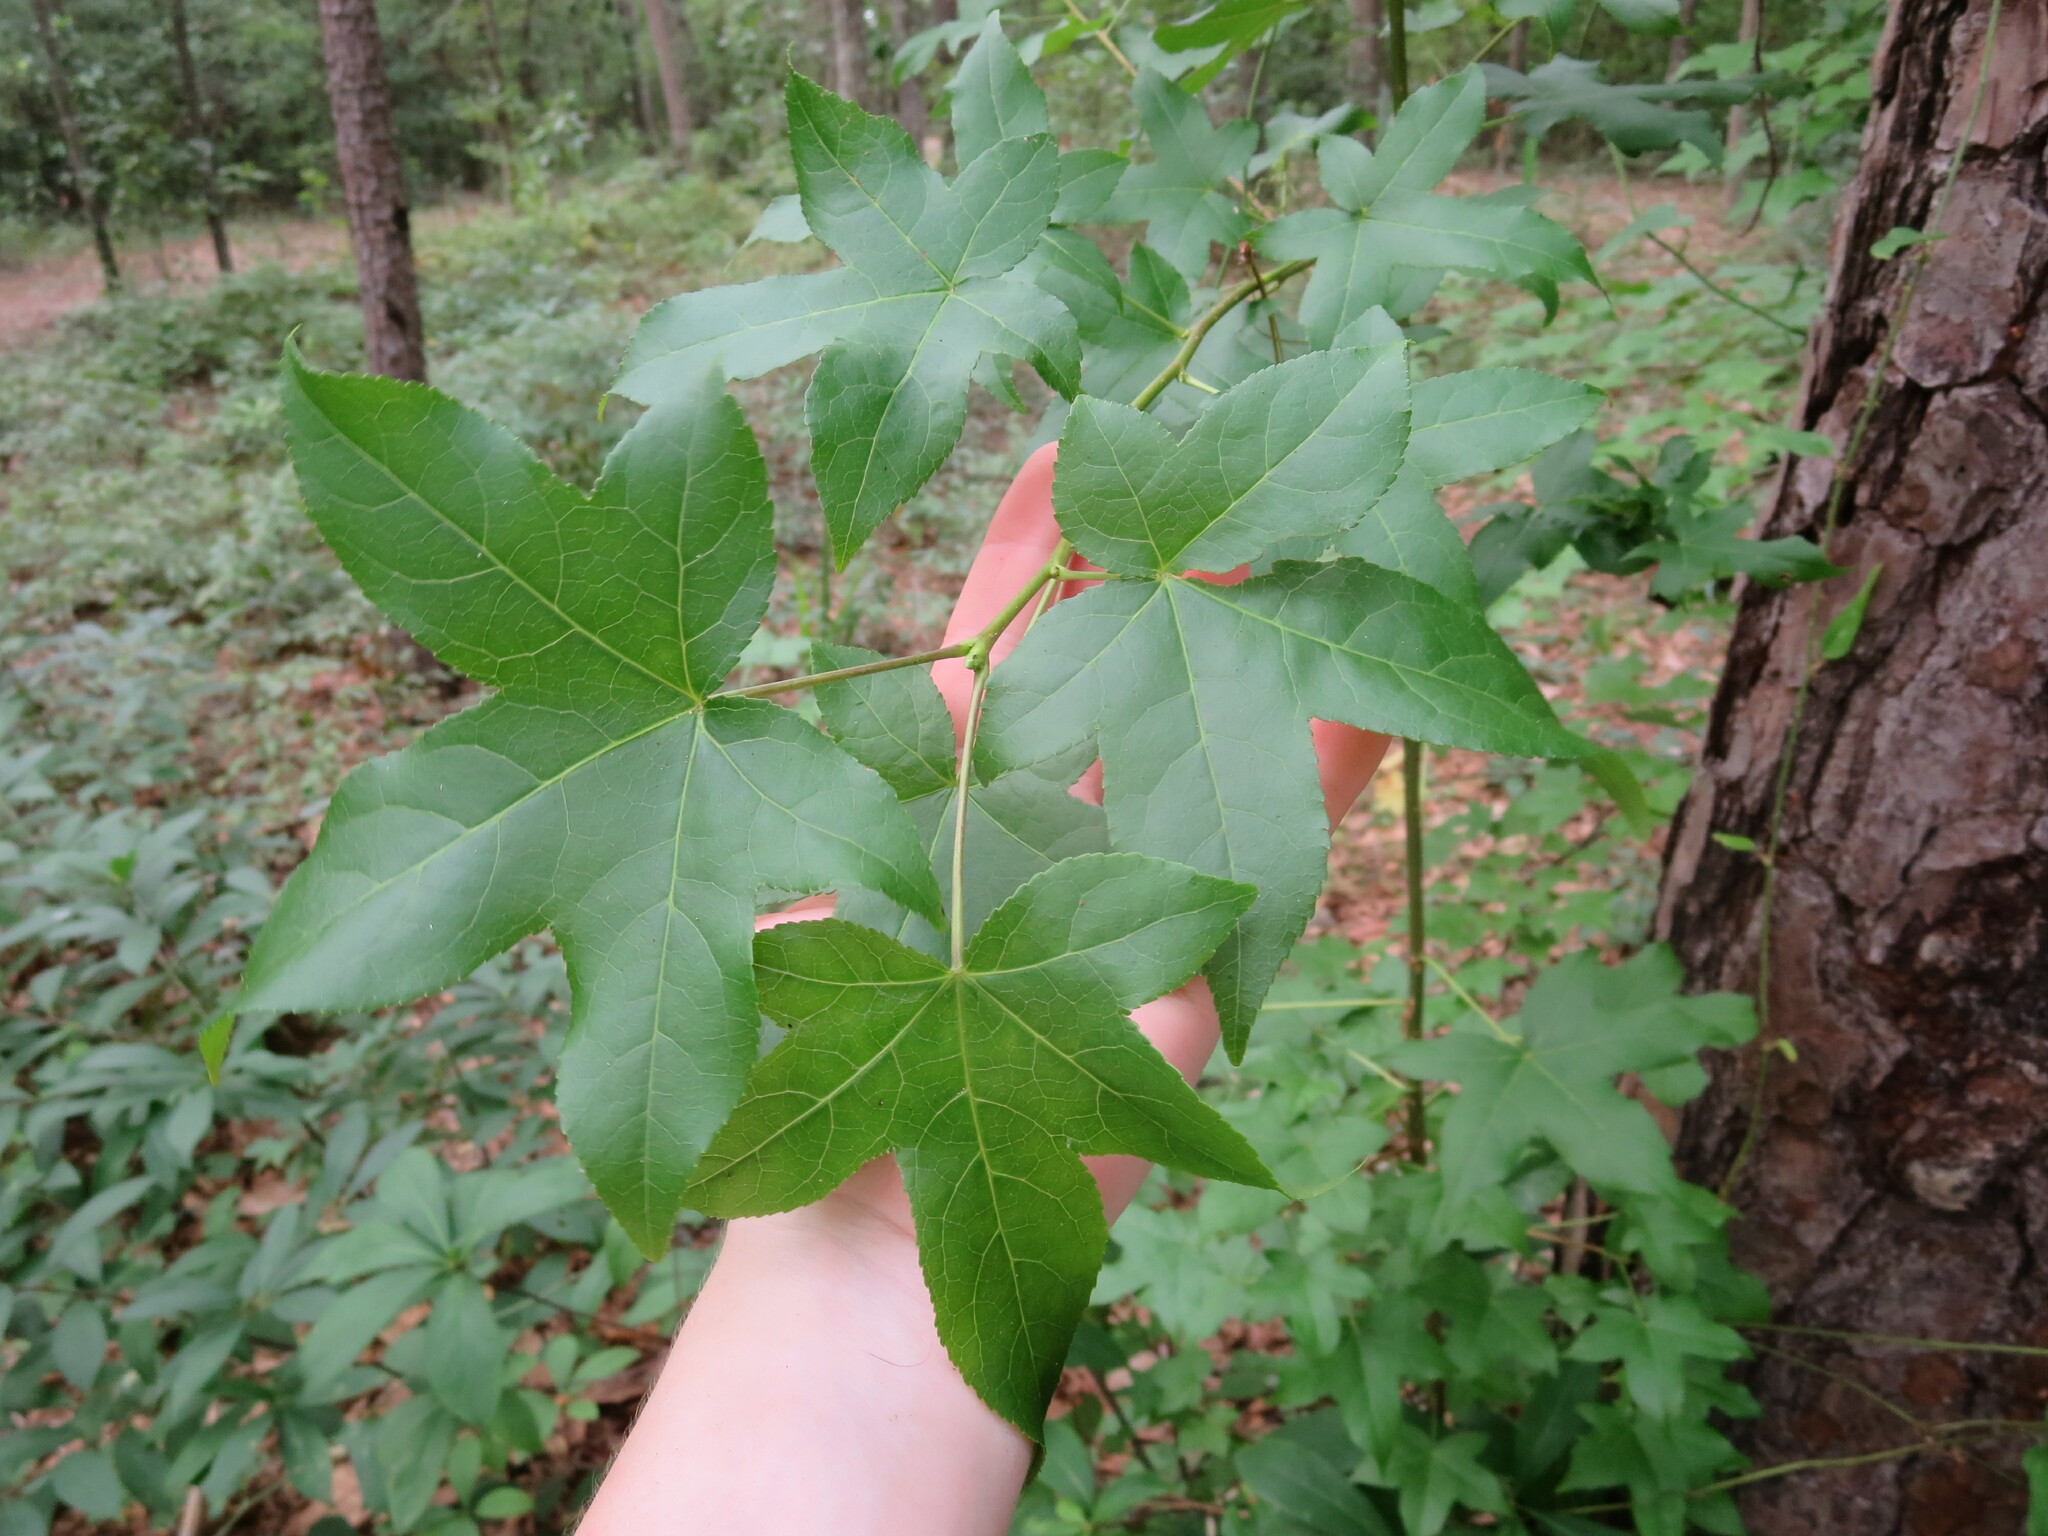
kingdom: Plantae
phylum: Tracheophyta
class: Magnoliopsida
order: Saxifragales
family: Altingiaceae
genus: Liquidambar
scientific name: Liquidambar styraciflua
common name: Sweet gum
